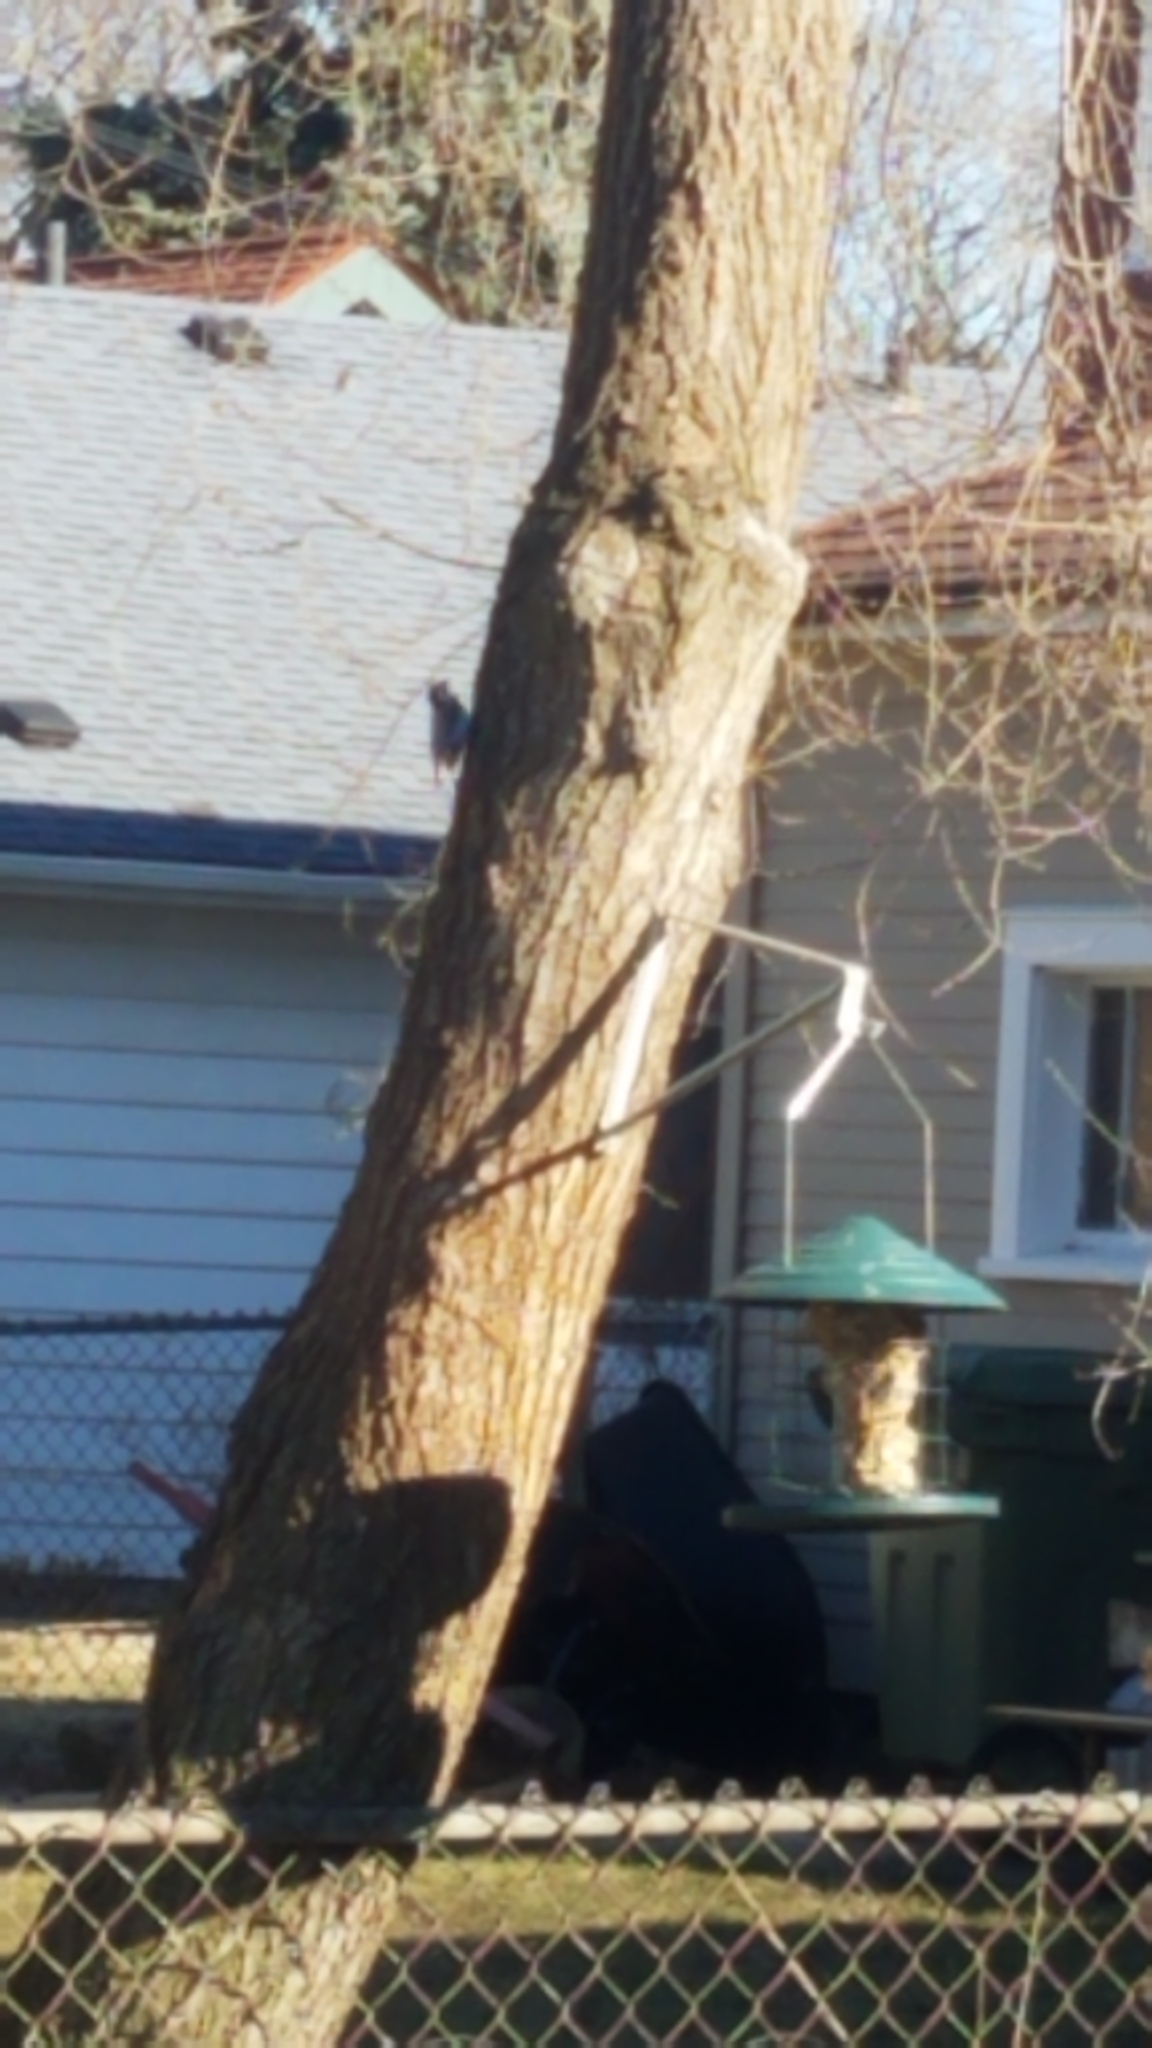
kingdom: Animalia
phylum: Chordata
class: Aves
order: Passeriformes
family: Sittidae
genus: Sitta
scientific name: Sitta carolinensis
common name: White-breasted nuthatch
